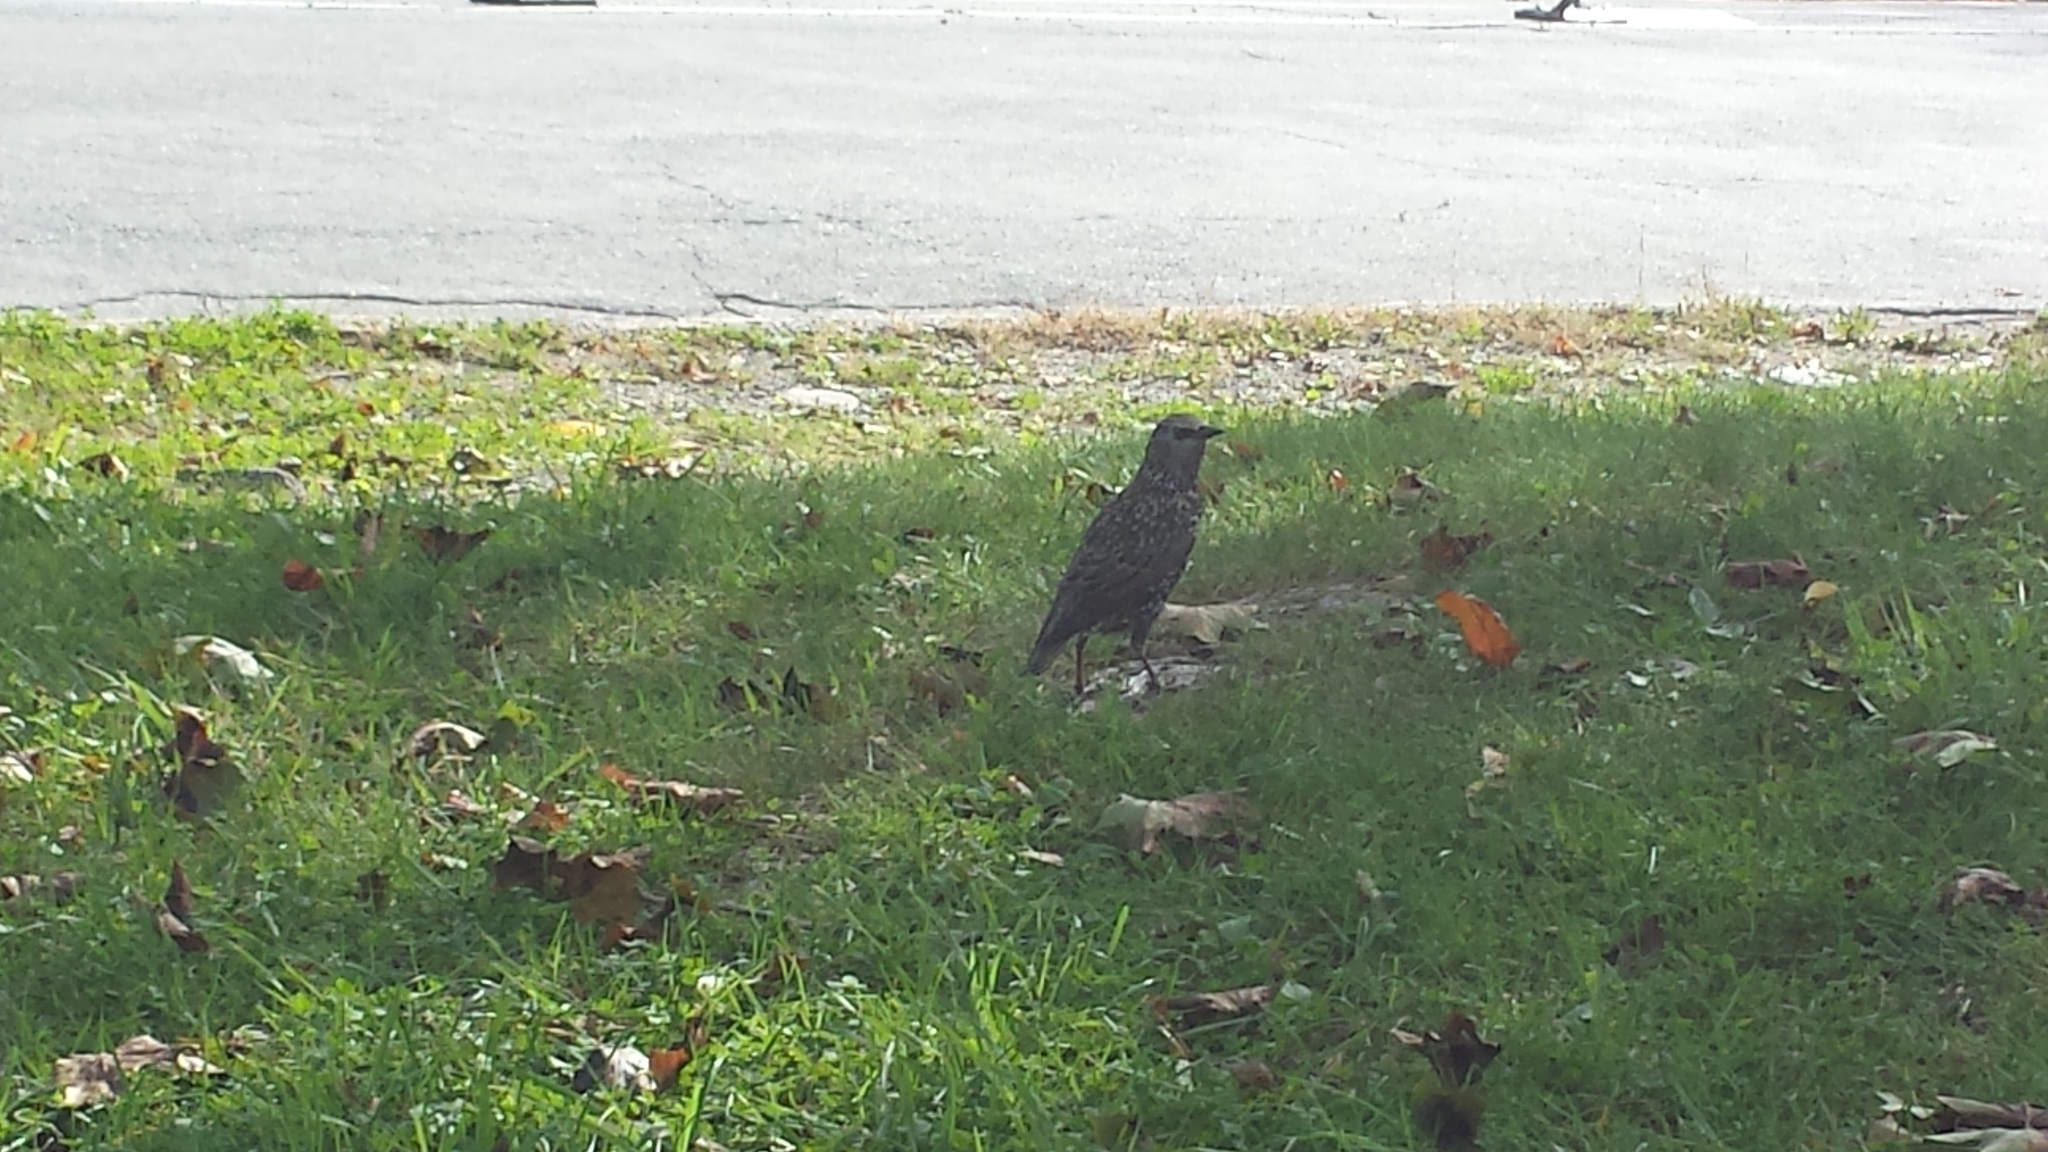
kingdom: Animalia
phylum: Chordata
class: Aves
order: Passeriformes
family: Sturnidae
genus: Sturnus
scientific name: Sturnus vulgaris
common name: Common starling
